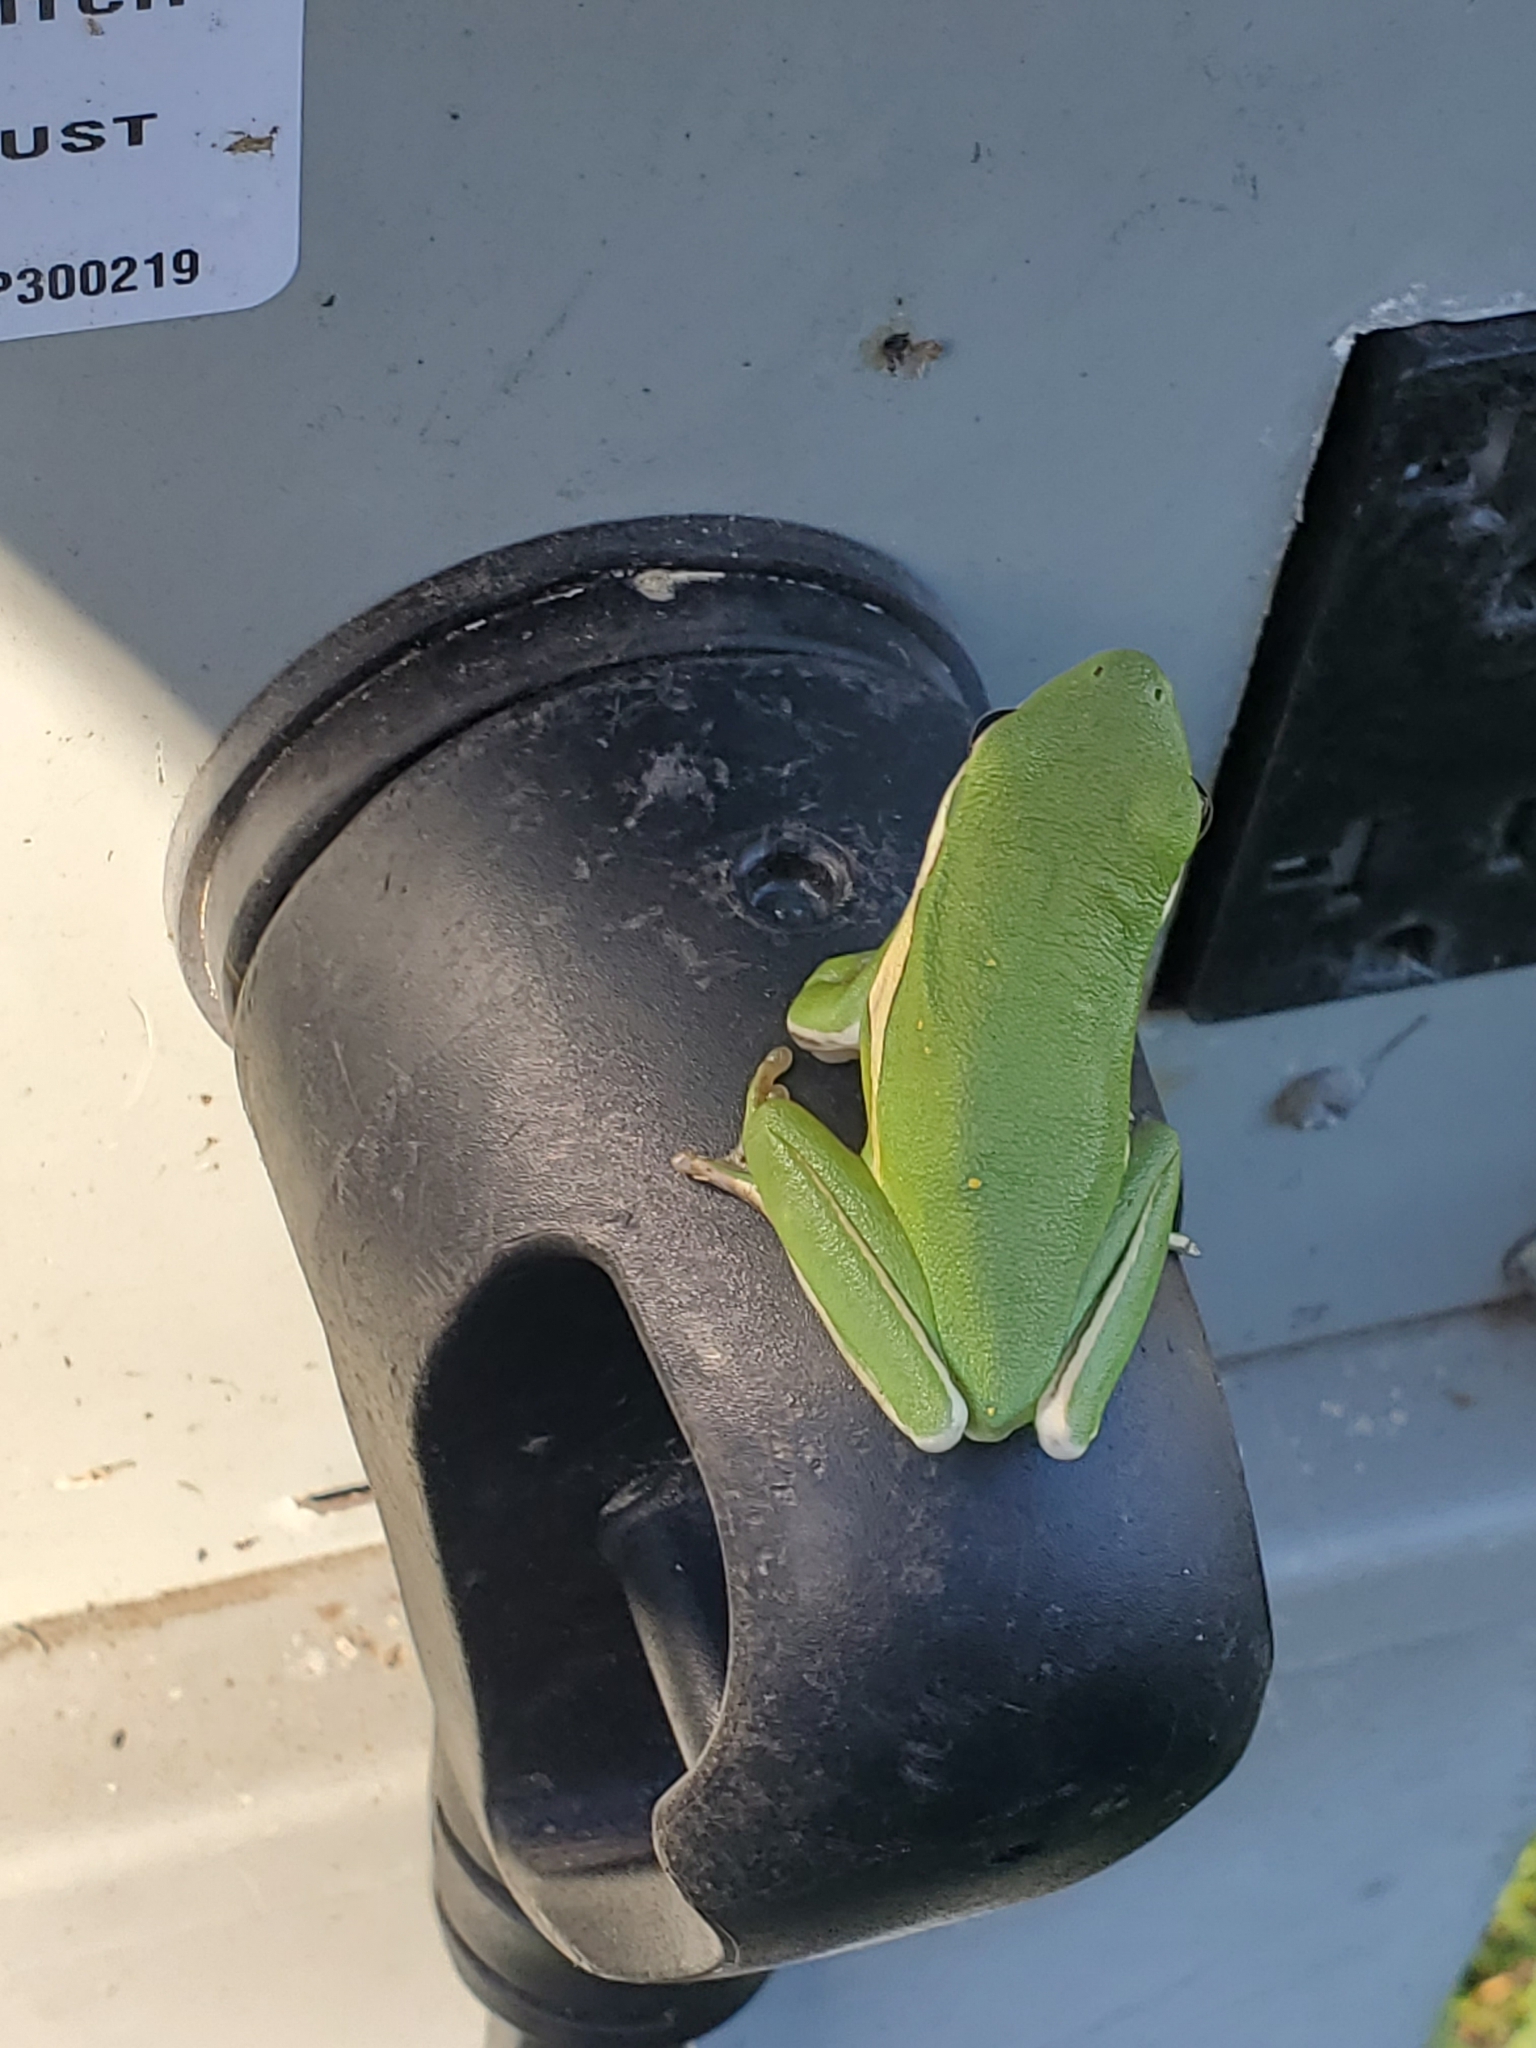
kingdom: Animalia
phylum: Chordata
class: Amphibia
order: Anura
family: Hylidae
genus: Dryophytes
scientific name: Dryophytes cinereus
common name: Green treefrog
